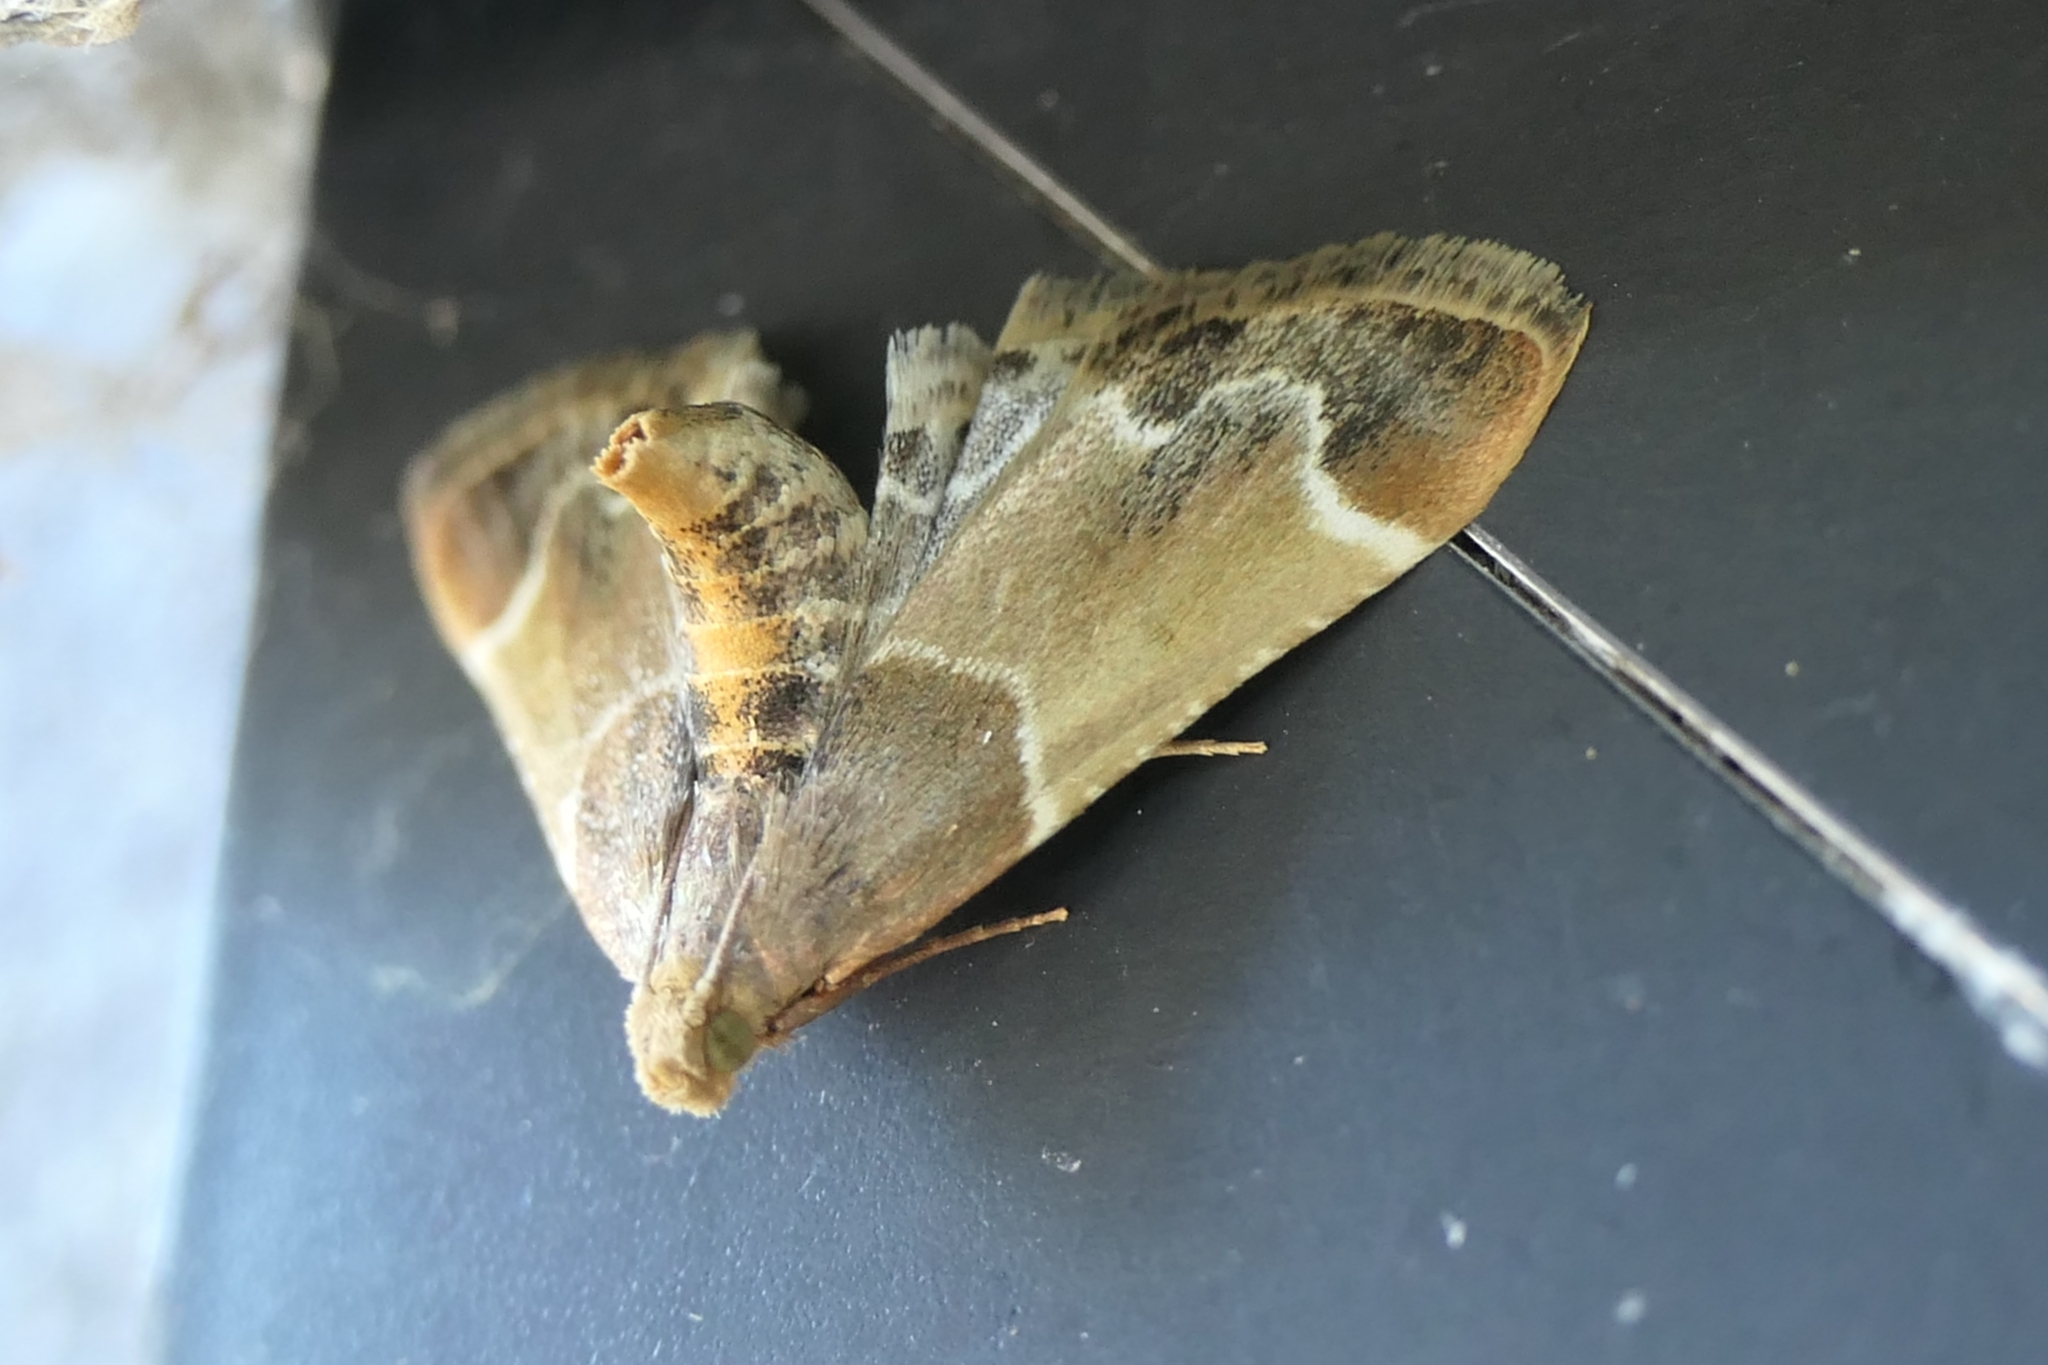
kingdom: Animalia
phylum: Arthropoda
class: Insecta
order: Lepidoptera
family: Pyralidae
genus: Pyralis
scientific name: Pyralis farinalis
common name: Meal moth
